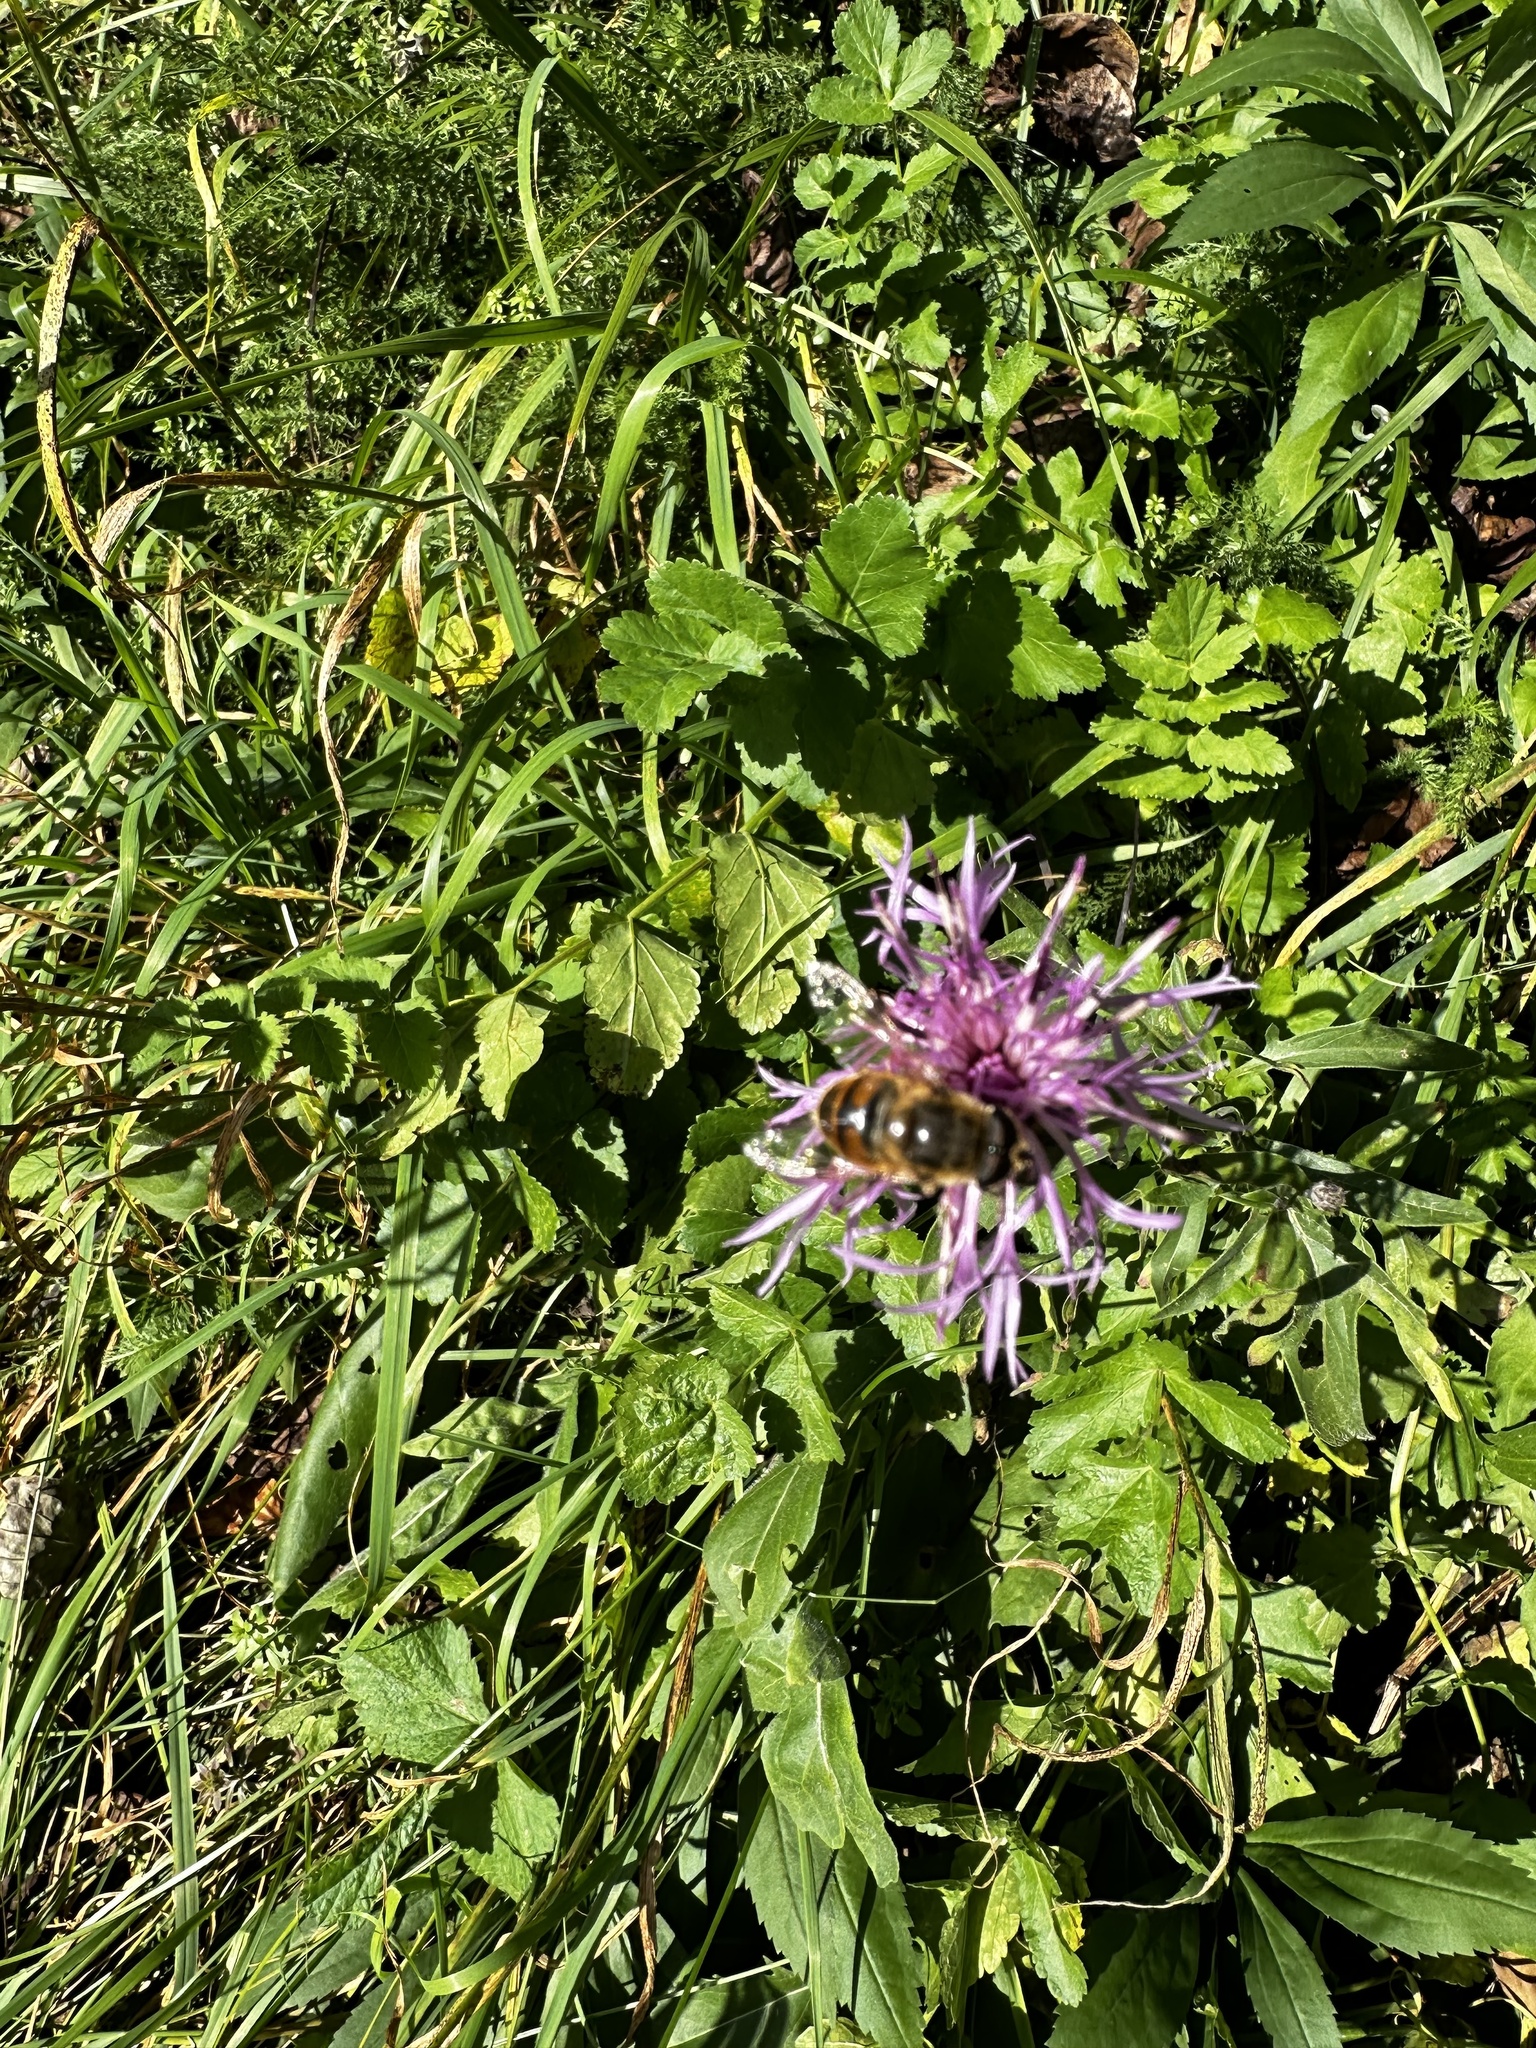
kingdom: Animalia
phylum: Arthropoda
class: Insecta
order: Diptera
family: Syrphidae
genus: Eristalis
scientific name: Eristalis tenax
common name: Drone fly
